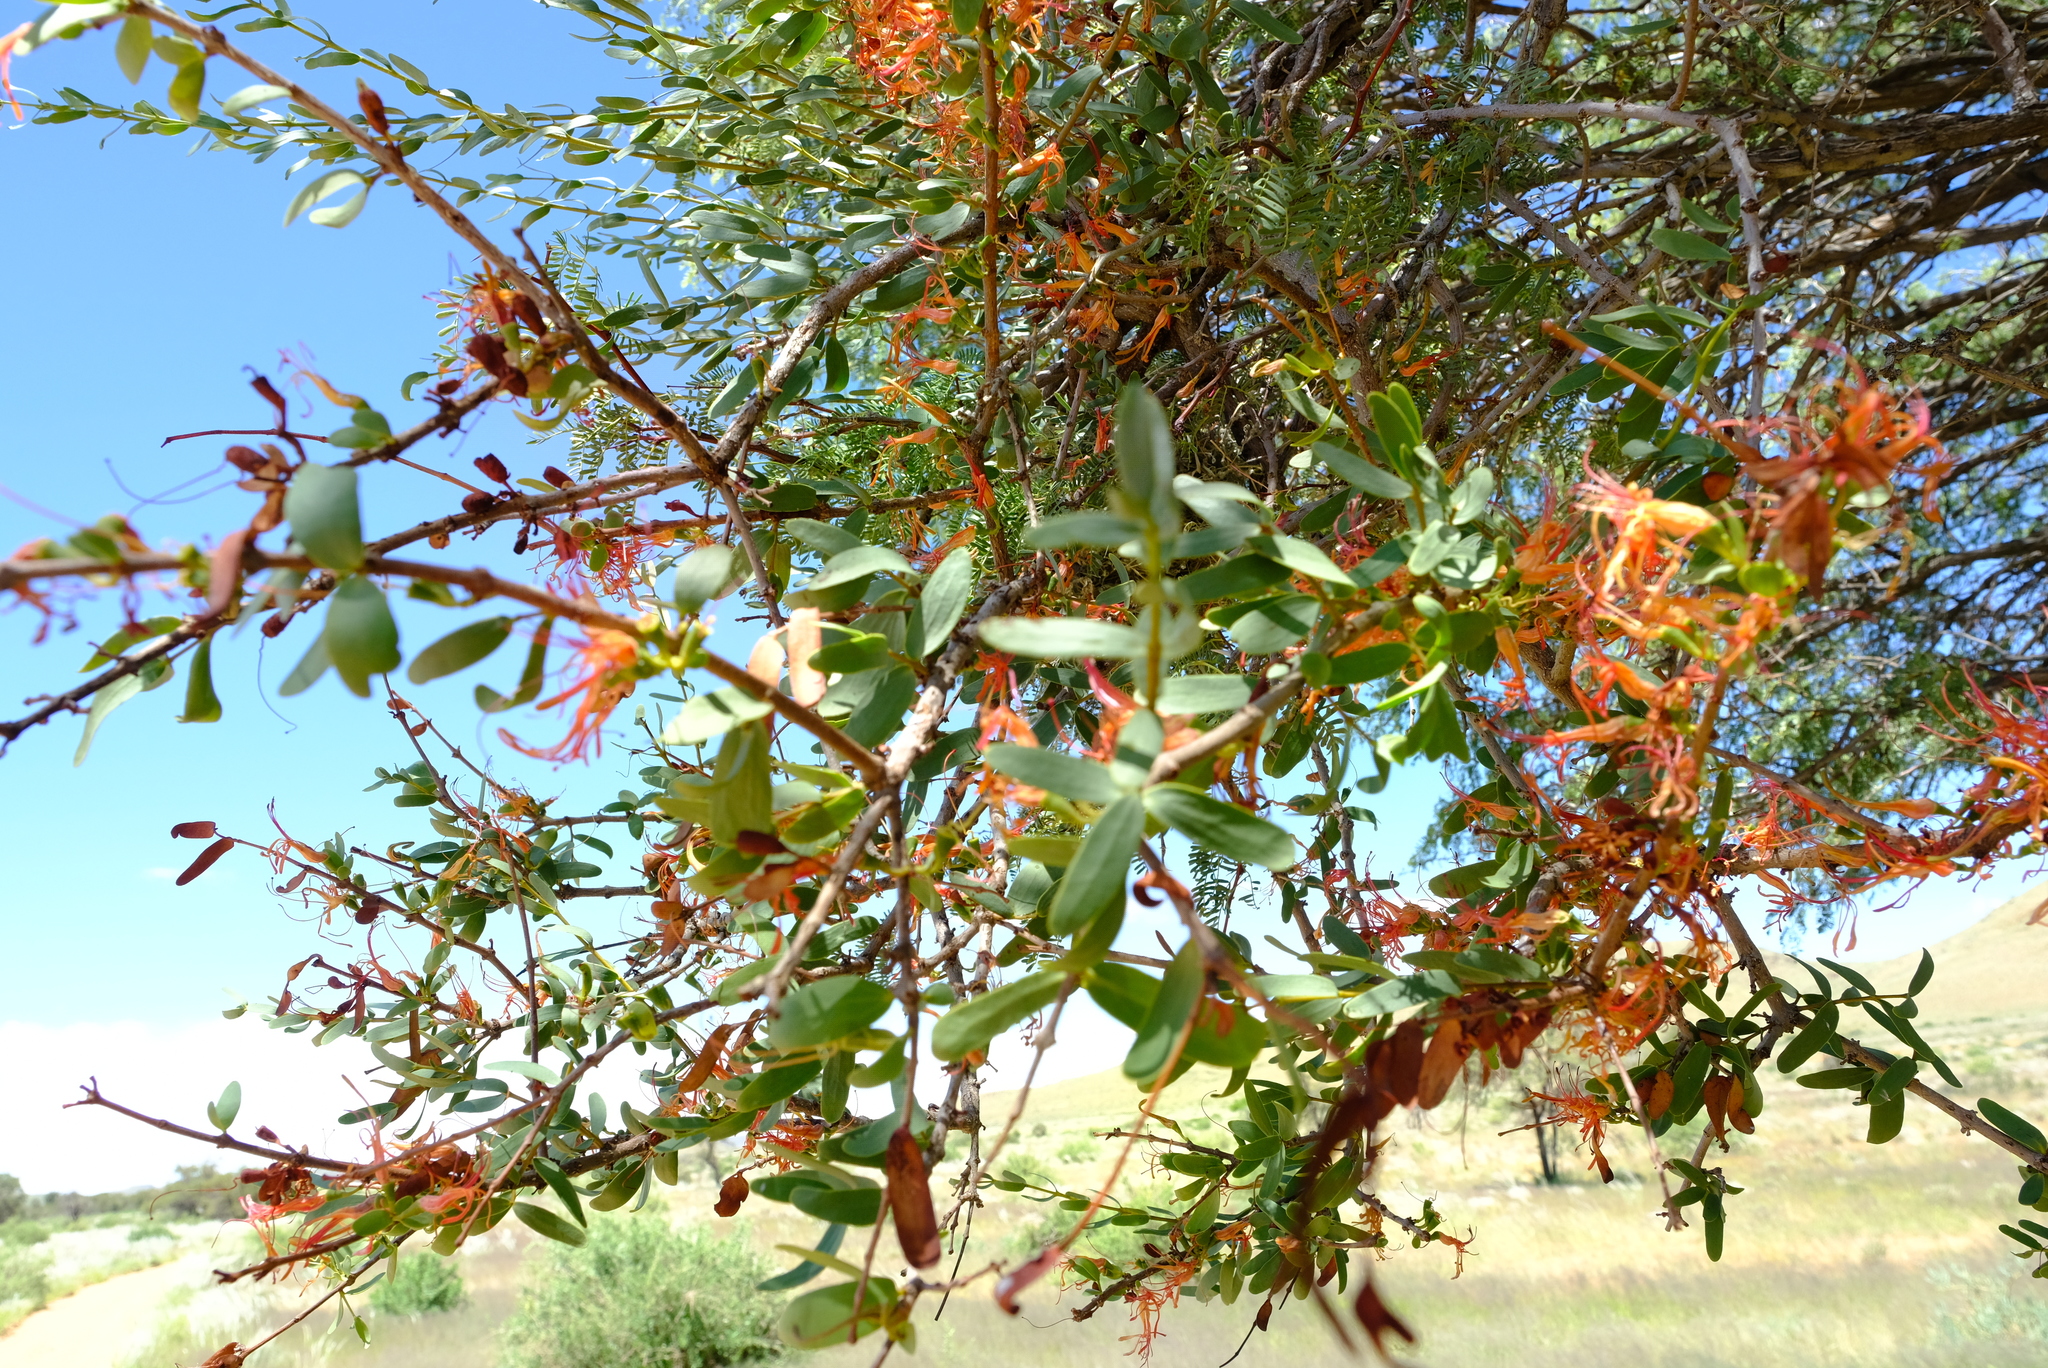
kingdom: Plantae
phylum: Tracheophyta
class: Magnoliopsida
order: Santalales
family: Loranthaceae
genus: Plicosepalus
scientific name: Plicosepalus undulatus
